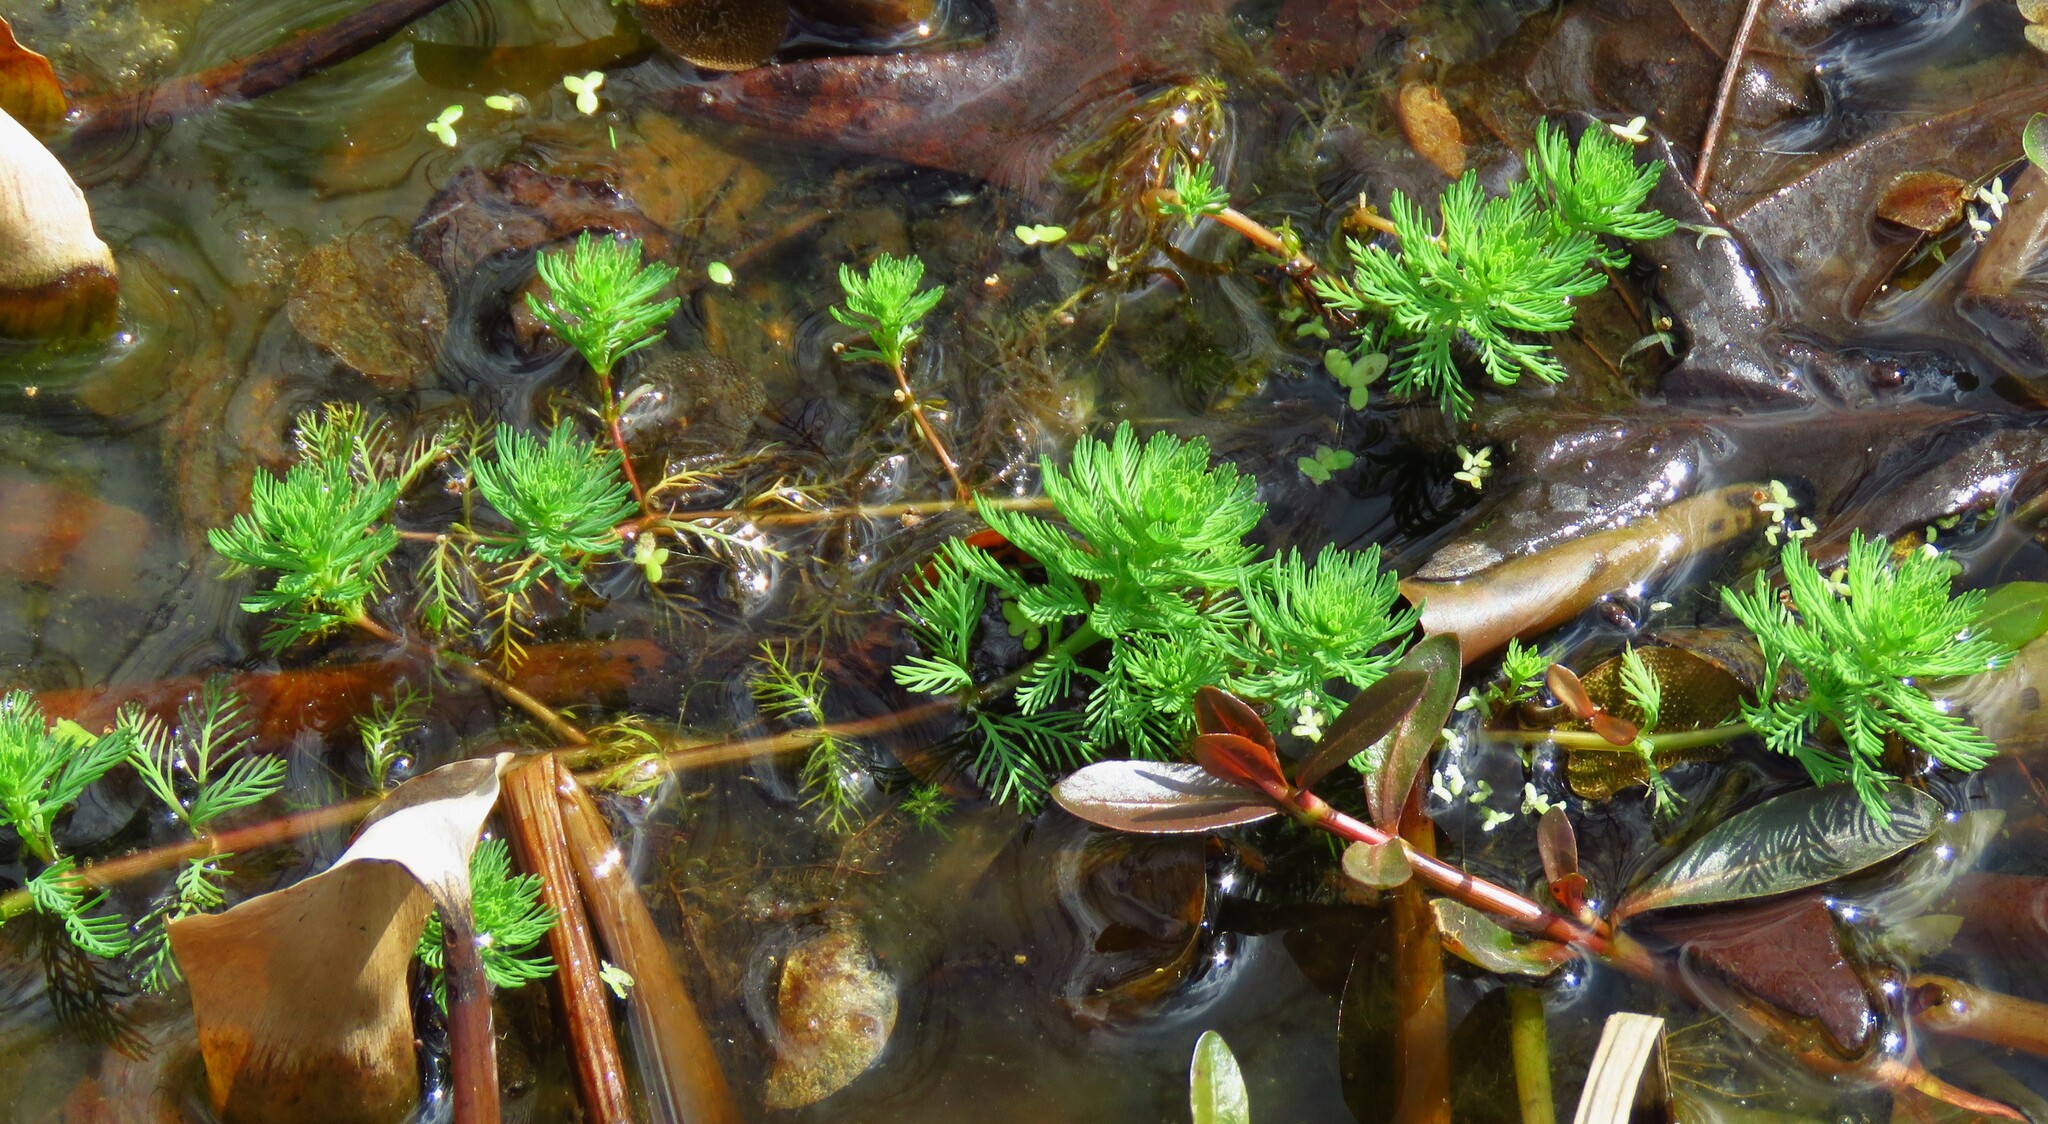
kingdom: Plantae
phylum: Tracheophyta
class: Magnoliopsida
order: Saxifragales
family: Haloragaceae
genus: Myriophyllum
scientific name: Myriophyllum aquaticum
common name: Parrot's feather
